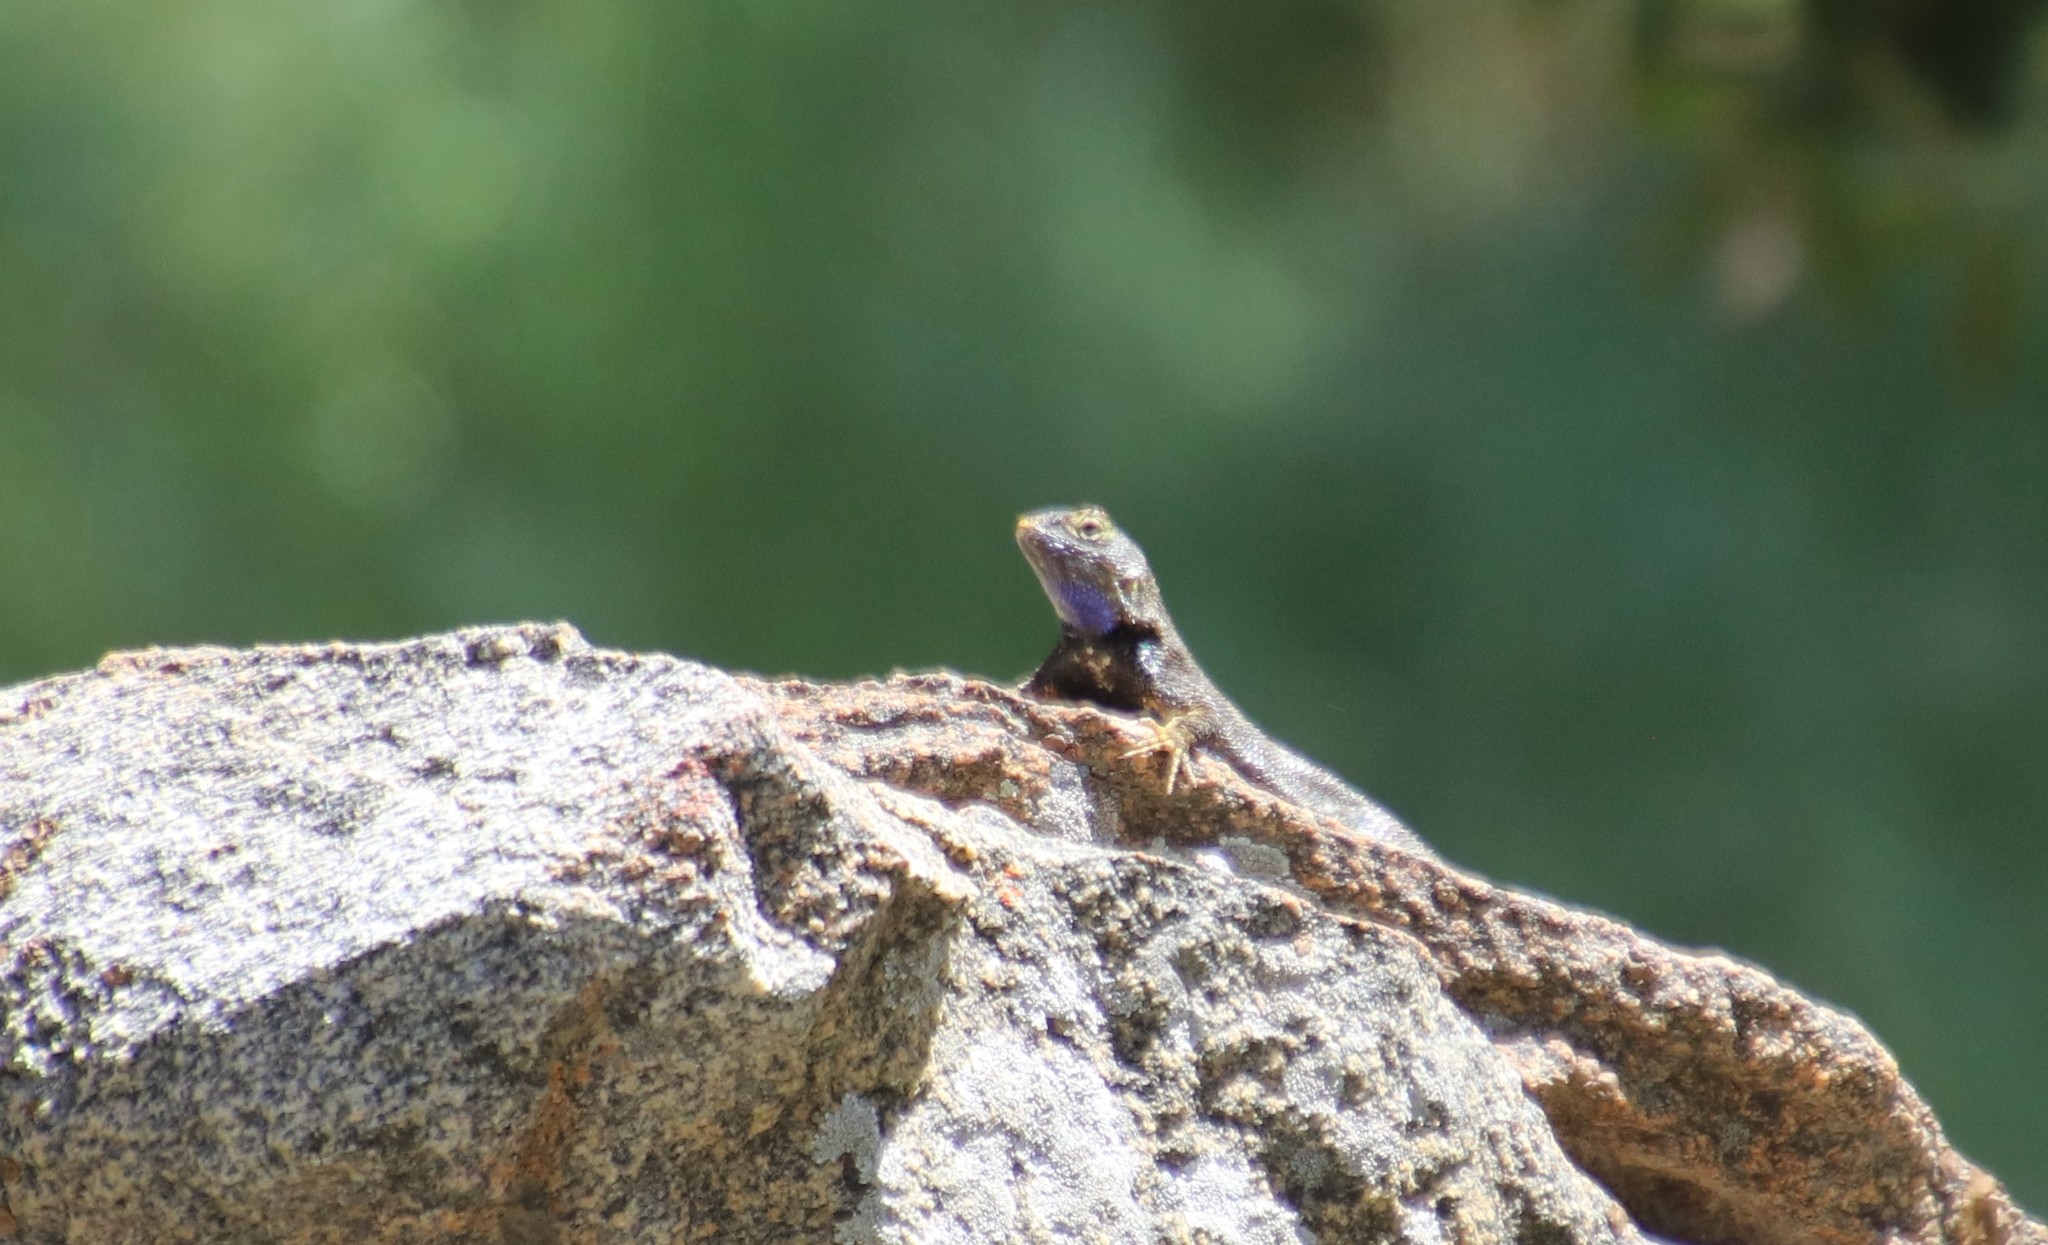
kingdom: Animalia
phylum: Chordata
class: Squamata
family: Phrynosomatidae
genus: Sceloporus
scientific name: Sceloporus occidentalis
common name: Western fence lizard
